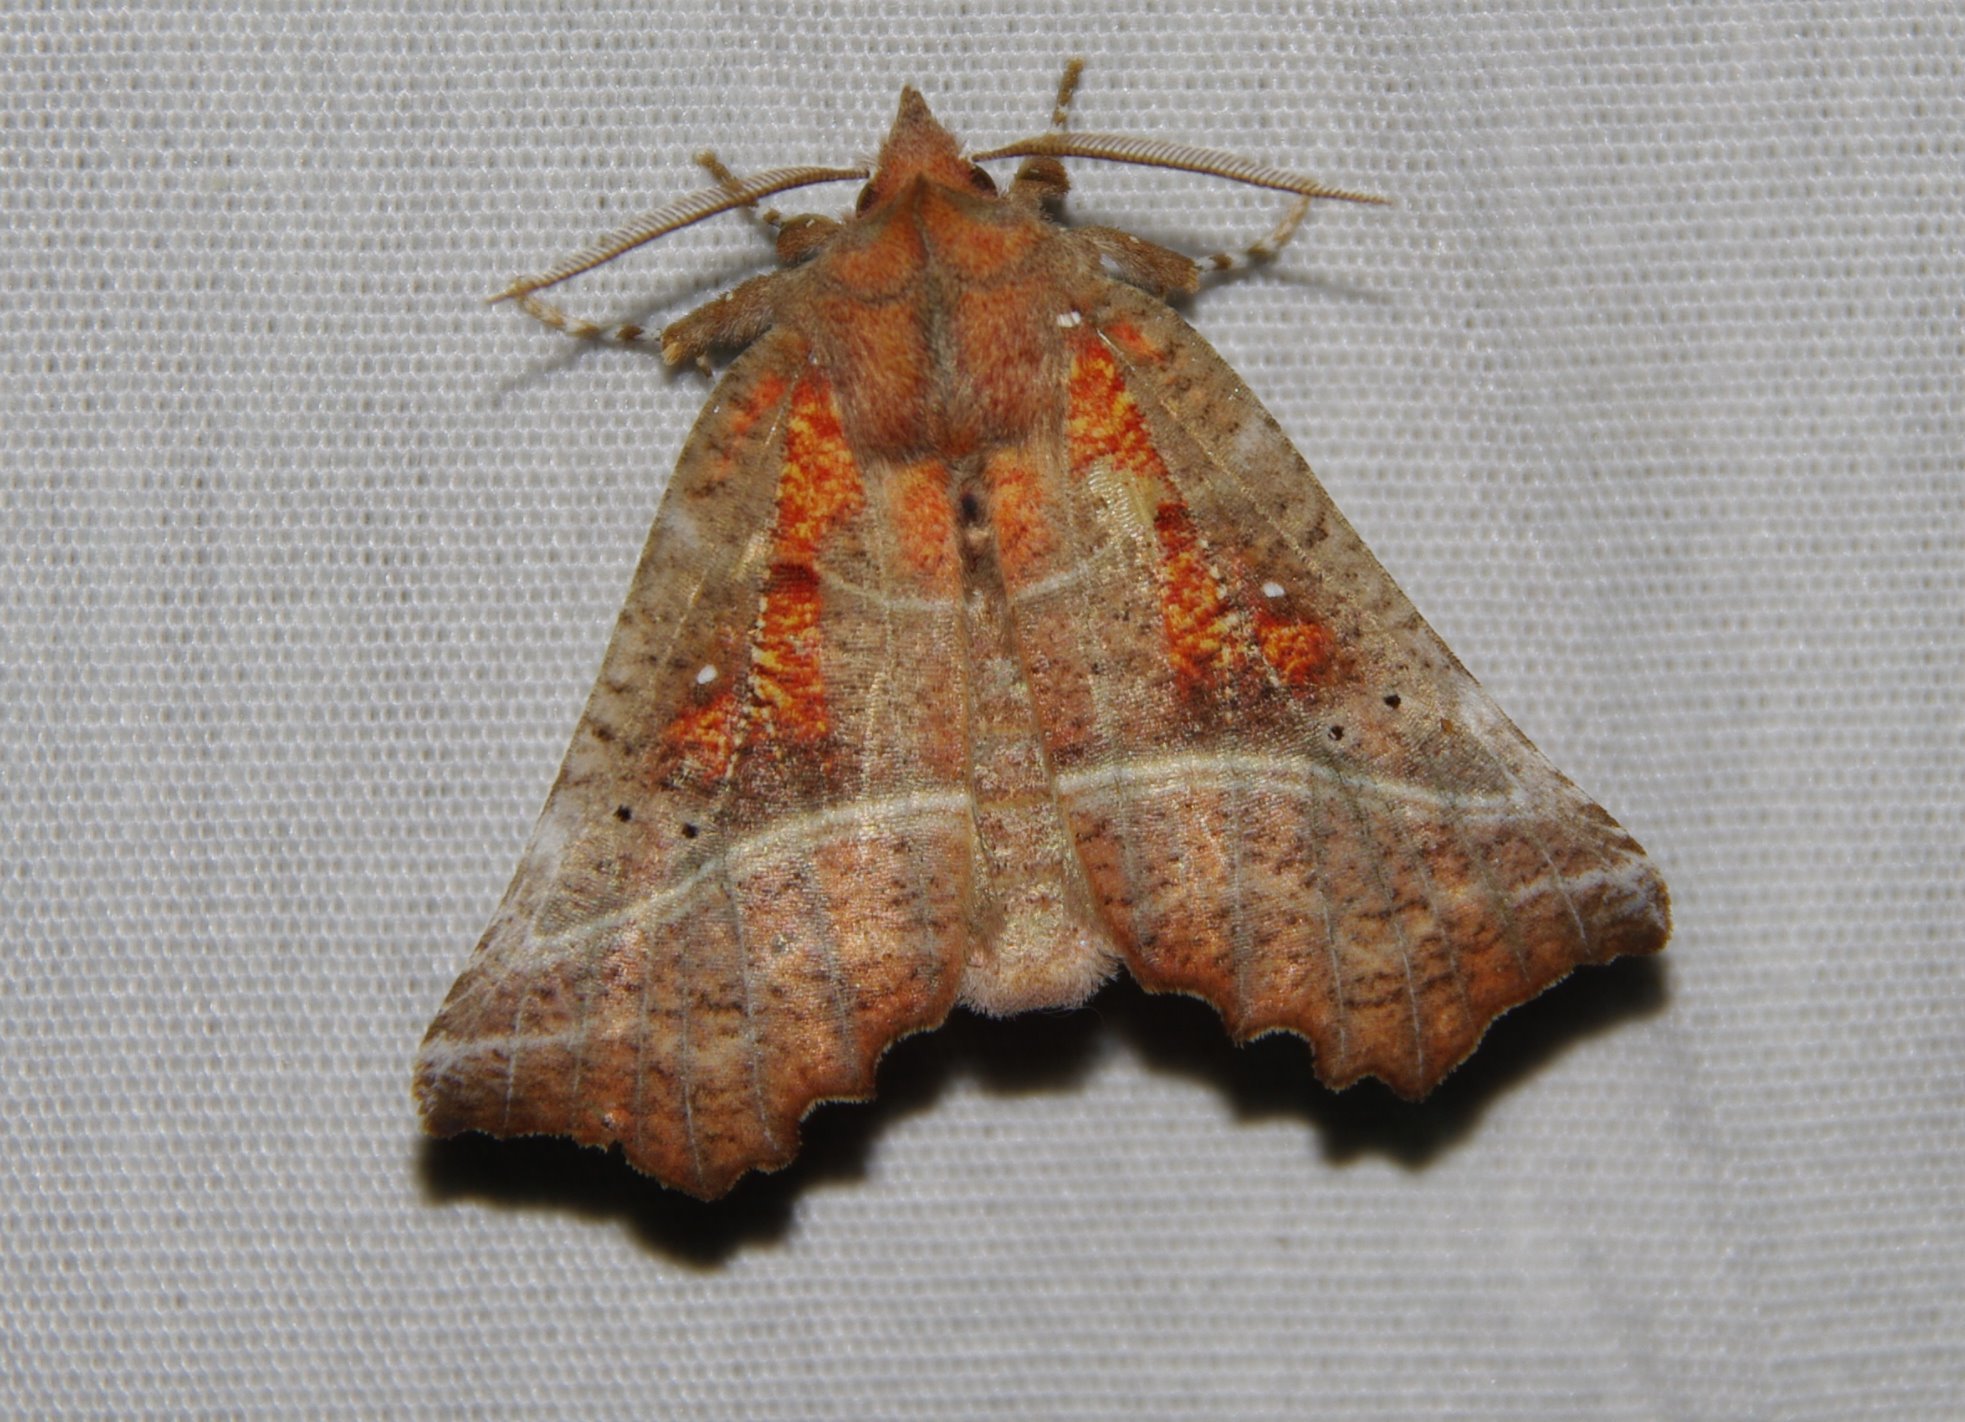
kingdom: Animalia
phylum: Arthropoda
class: Insecta
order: Lepidoptera
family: Erebidae
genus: Scoliopteryx
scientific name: Scoliopteryx libatrix
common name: Herald
